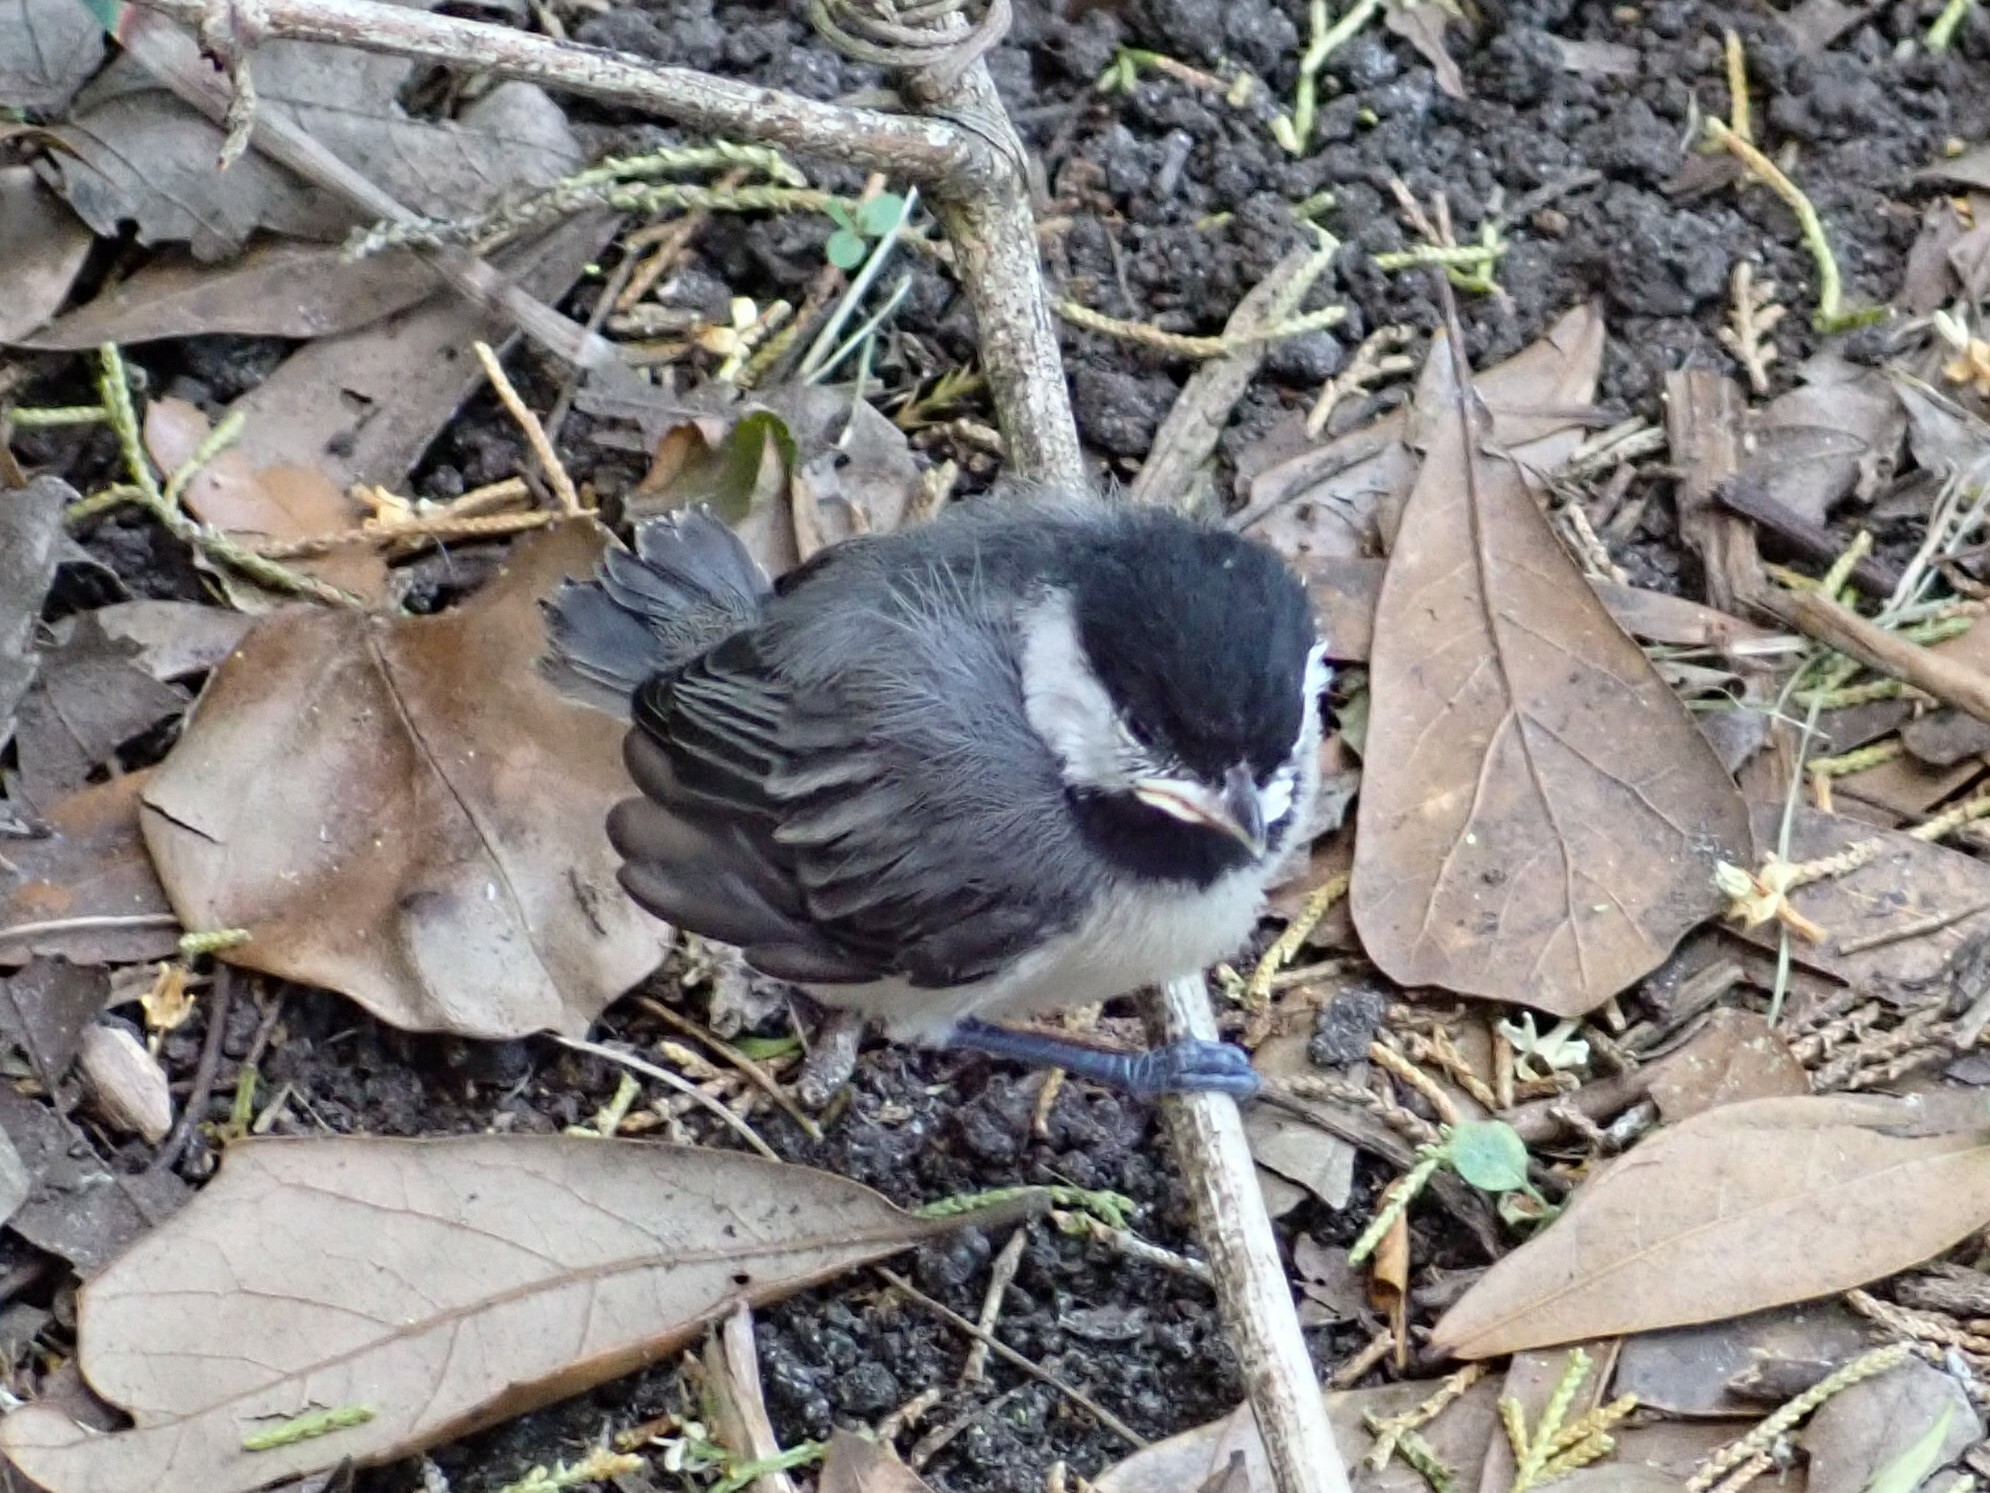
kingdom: Animalia
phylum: Chordata
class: Aves
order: Passeriformes
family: Paridae
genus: Poecile
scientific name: Poecile carolinensis
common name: Carolina chickadee
